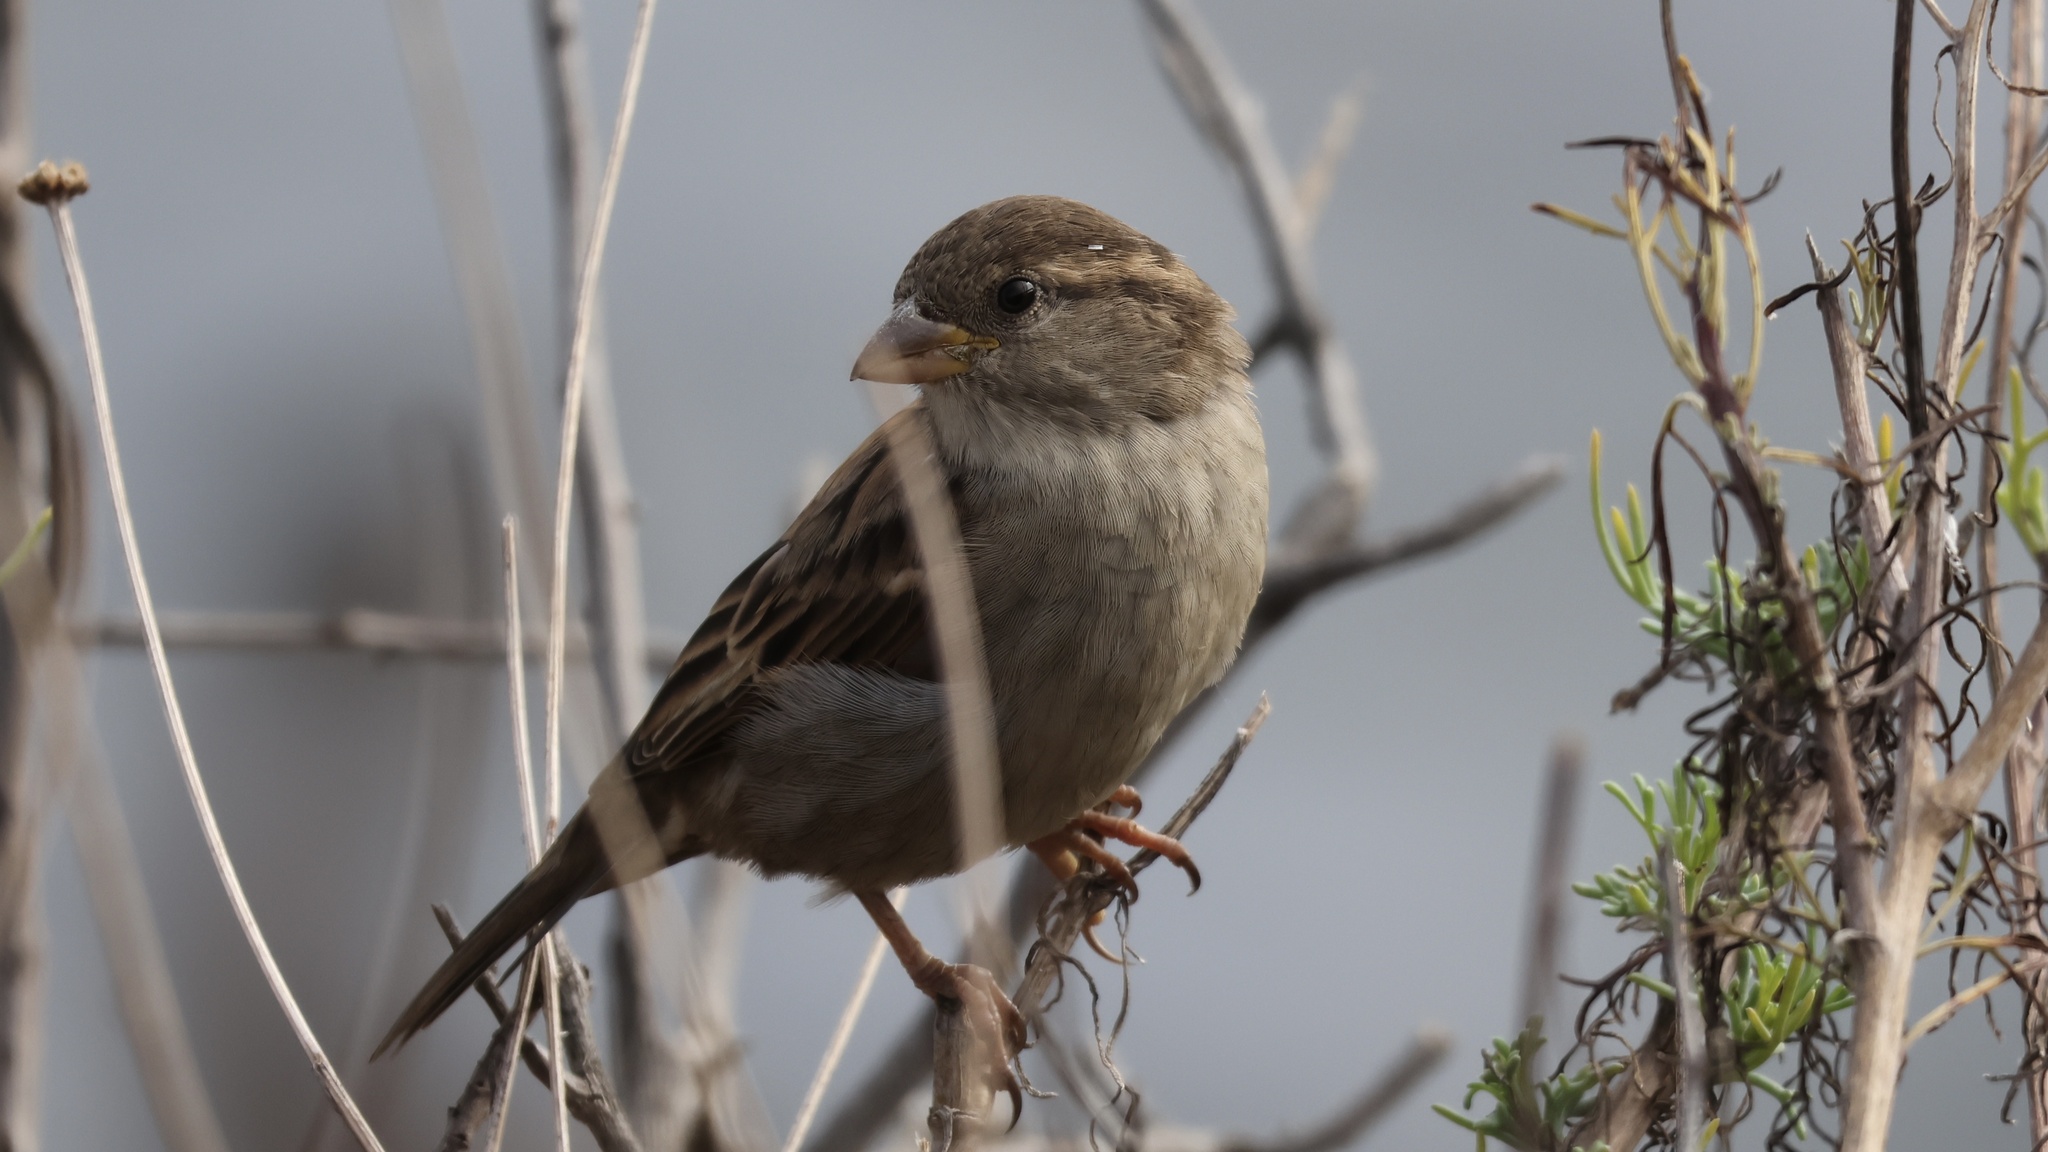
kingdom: Animalia
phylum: Chordata
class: Aves
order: Passeriformes
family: Passeridae
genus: Passer
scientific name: Passer domesticus
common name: House sparrow
